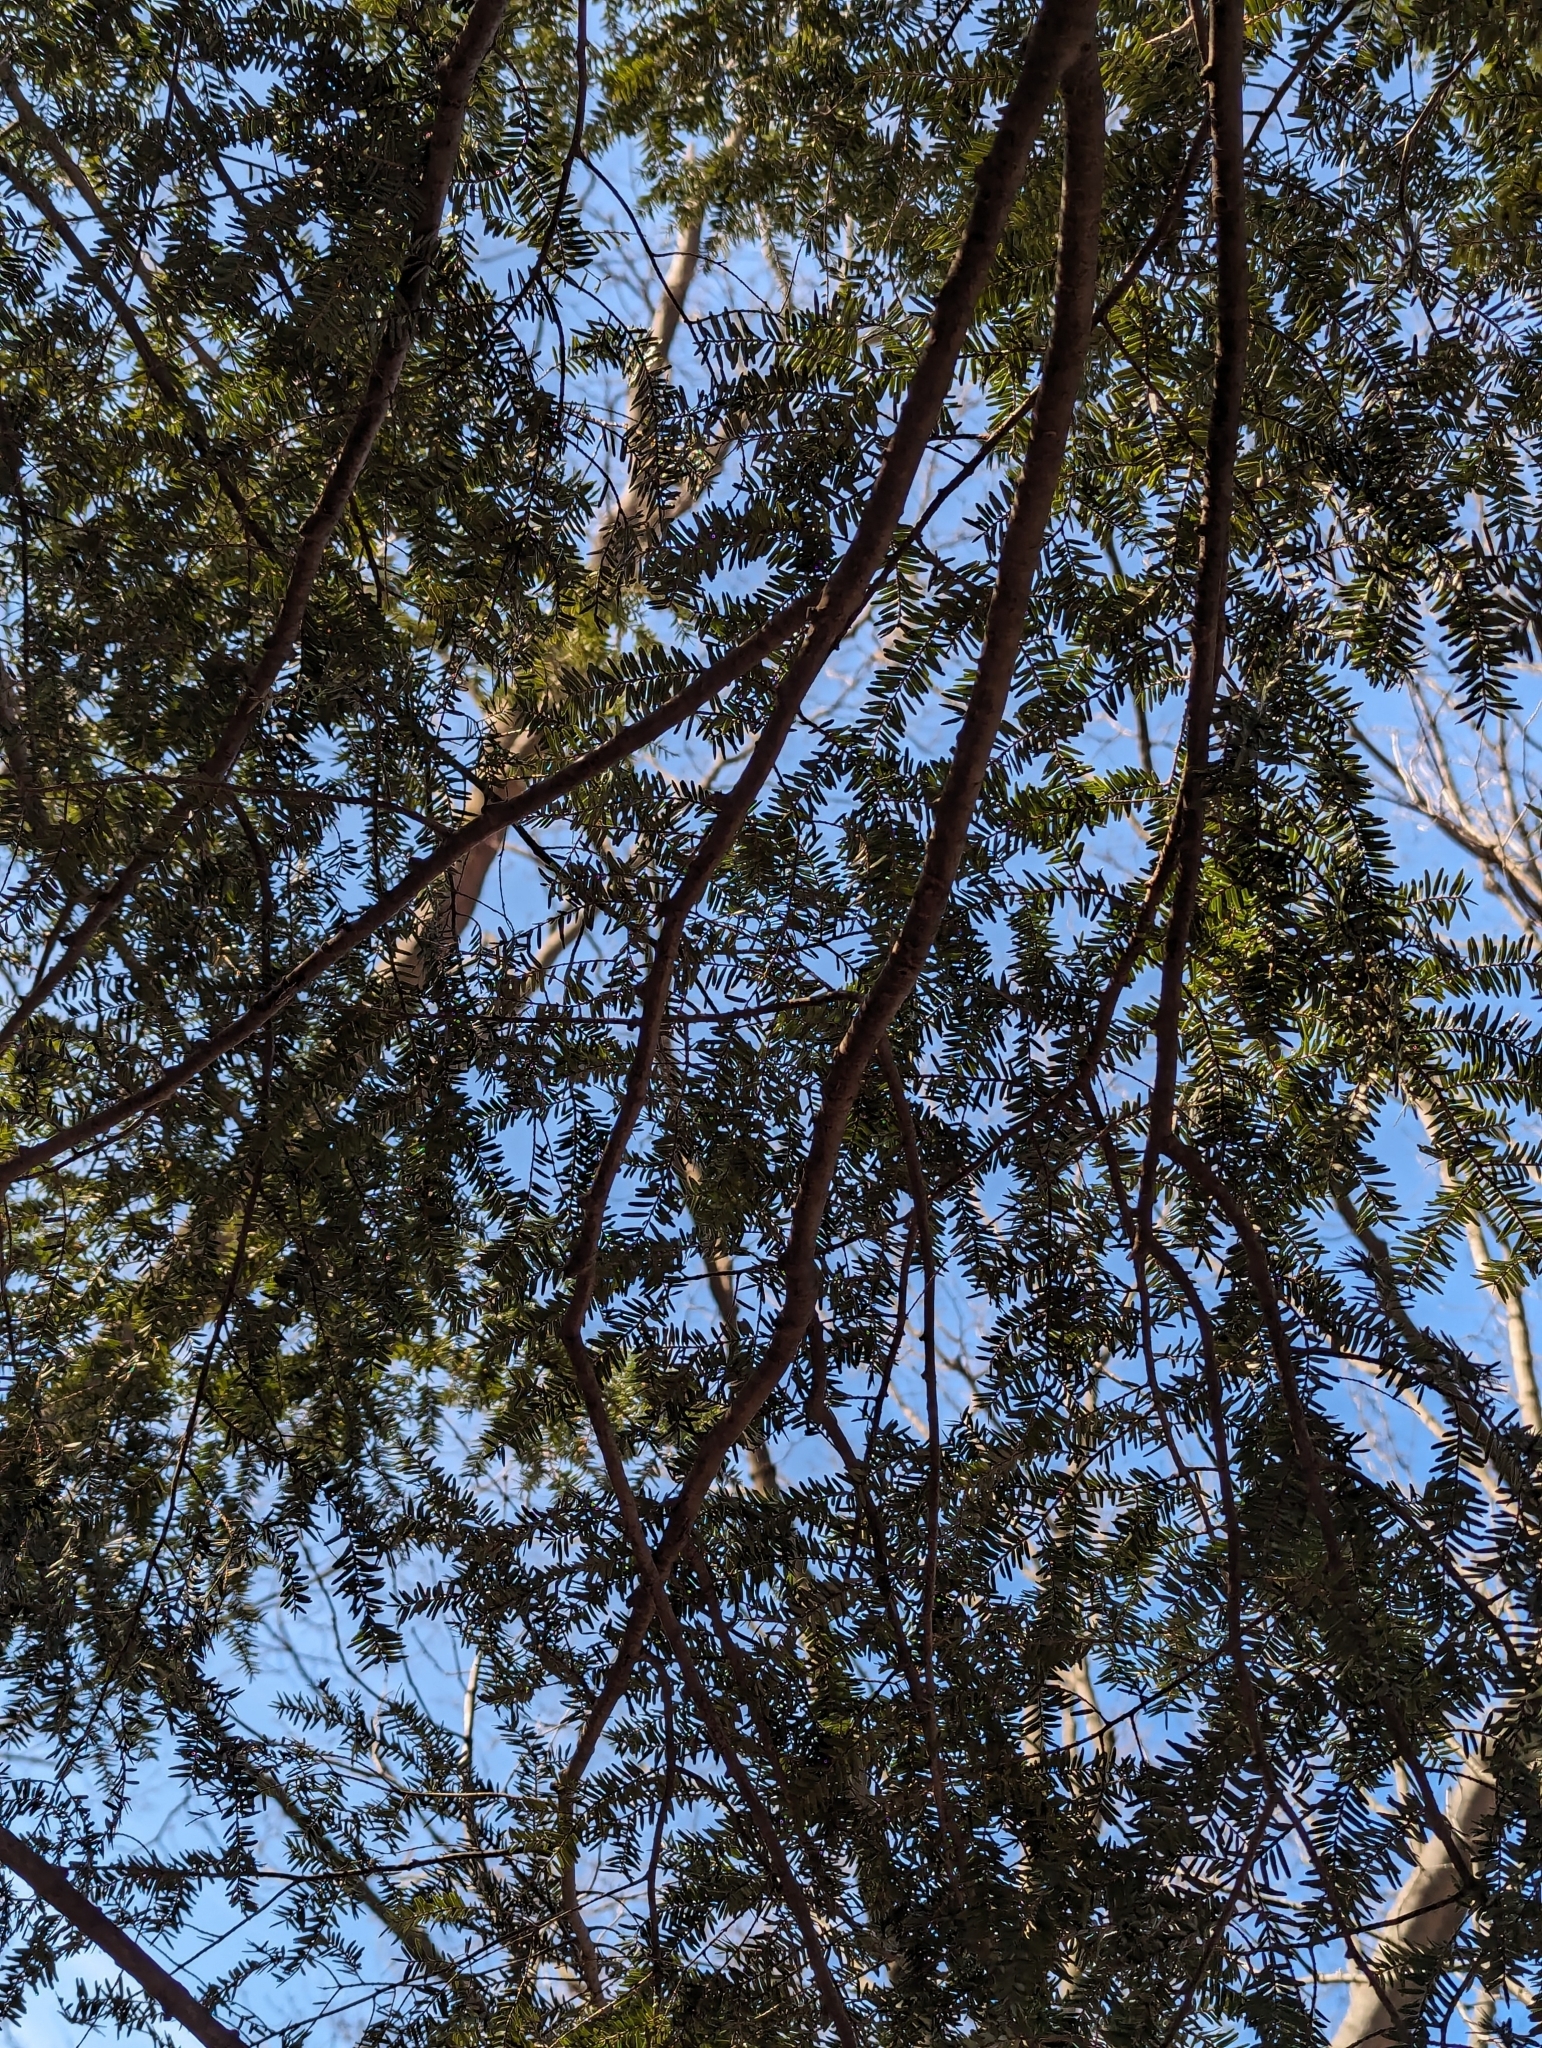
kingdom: Plantae
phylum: Tracheophyta
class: Pinopsida
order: Pinales
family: Pinaceae
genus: Tsuga
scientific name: Tsuga canadensis
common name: Eastern hemlock
